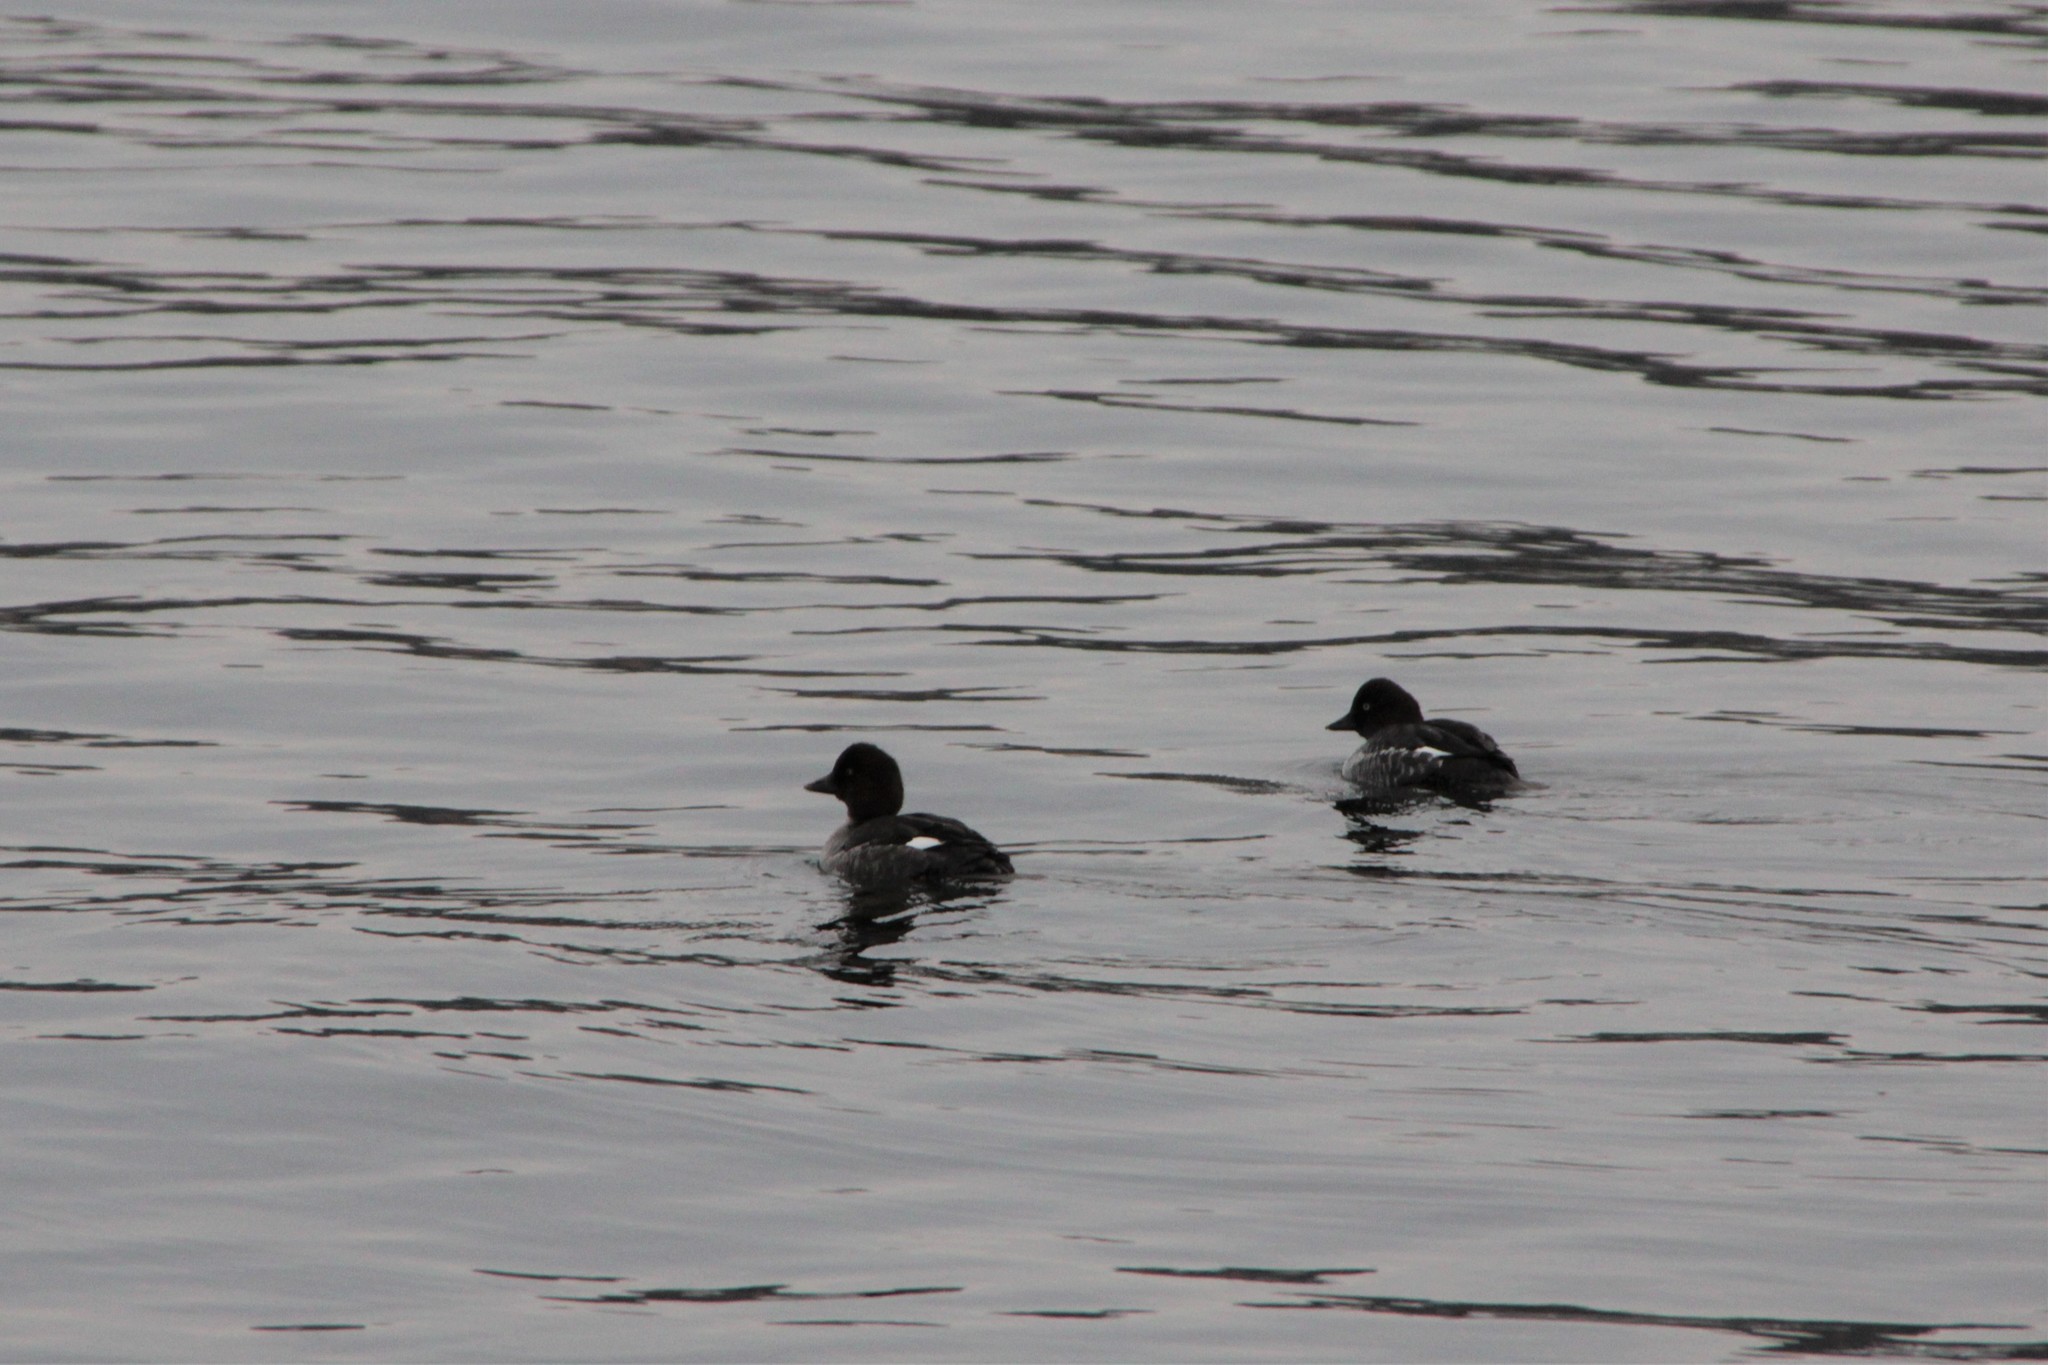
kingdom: Animalia
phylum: Chordata
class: Aves
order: Anseriformes
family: Anatidae
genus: Bucephala
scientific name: Bucephala clangula
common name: Common goldeneye
